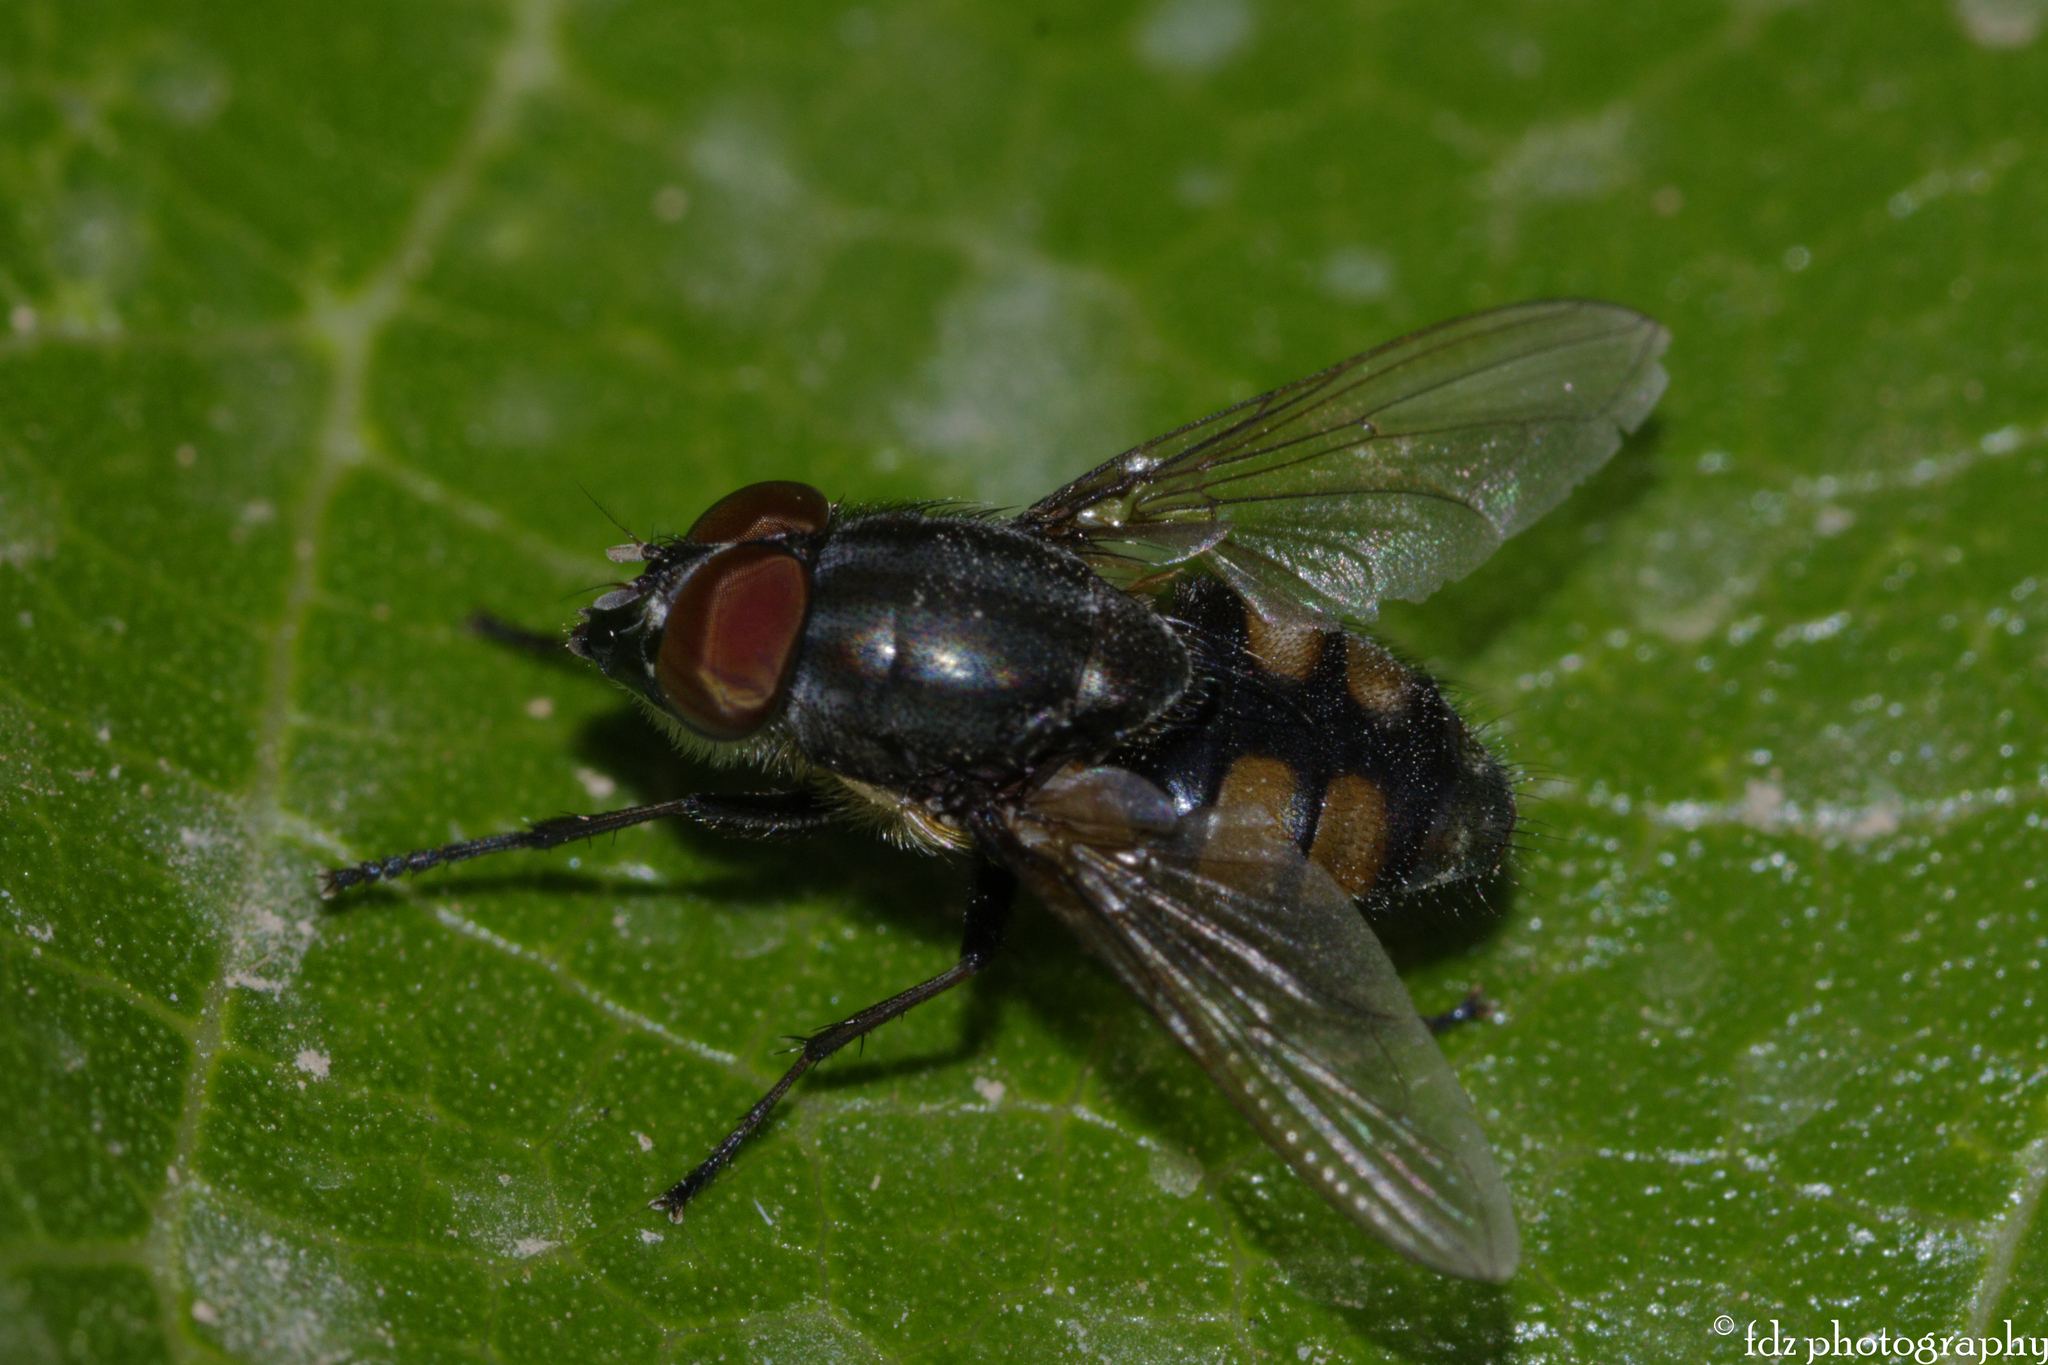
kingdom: Animalia
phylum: Arthropoda
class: Insecta
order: Diptera
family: Calliphoridae
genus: Stomorhina
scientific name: Stomorhina lunata
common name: Locust blowfly
